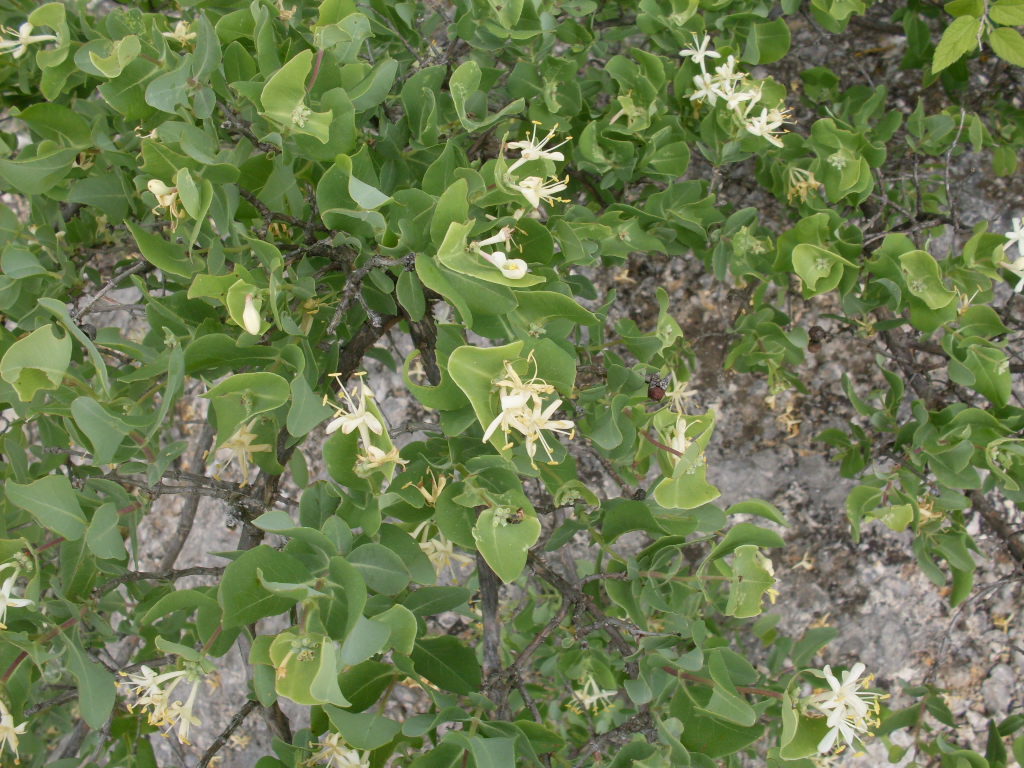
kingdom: Plantae
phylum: Tracheophyta
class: Magnoliopsida
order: Dipsacales
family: Caprifoliaceae
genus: Lonicera
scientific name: Lonicera albiflora
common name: White honeysuckle
